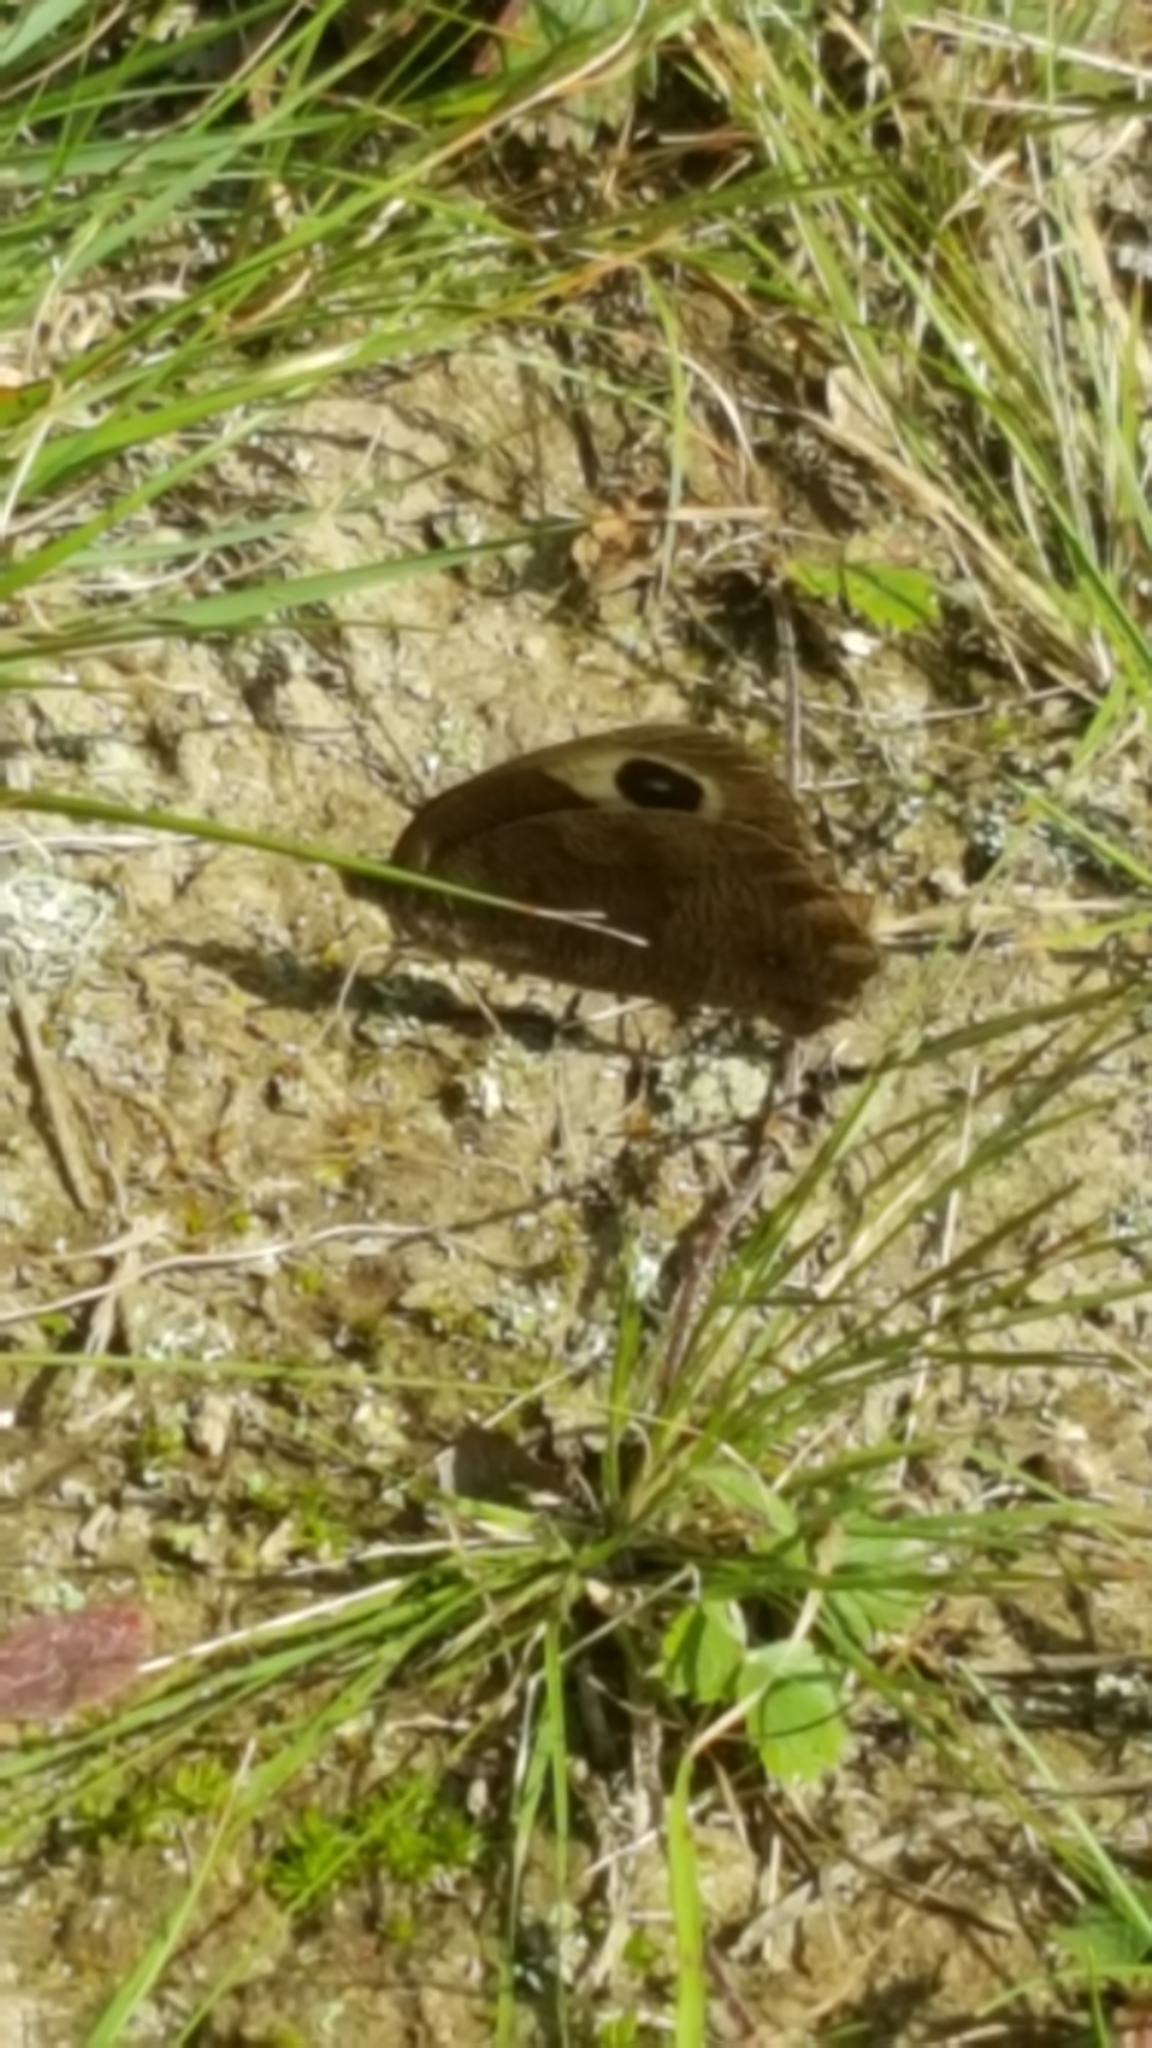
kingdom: Animalia
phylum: Arthropoda
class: Insecta
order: Lepidoptera
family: Nymphalidae
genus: Cercyonis
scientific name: Cercyonis pegala
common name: Common wood-nymph
